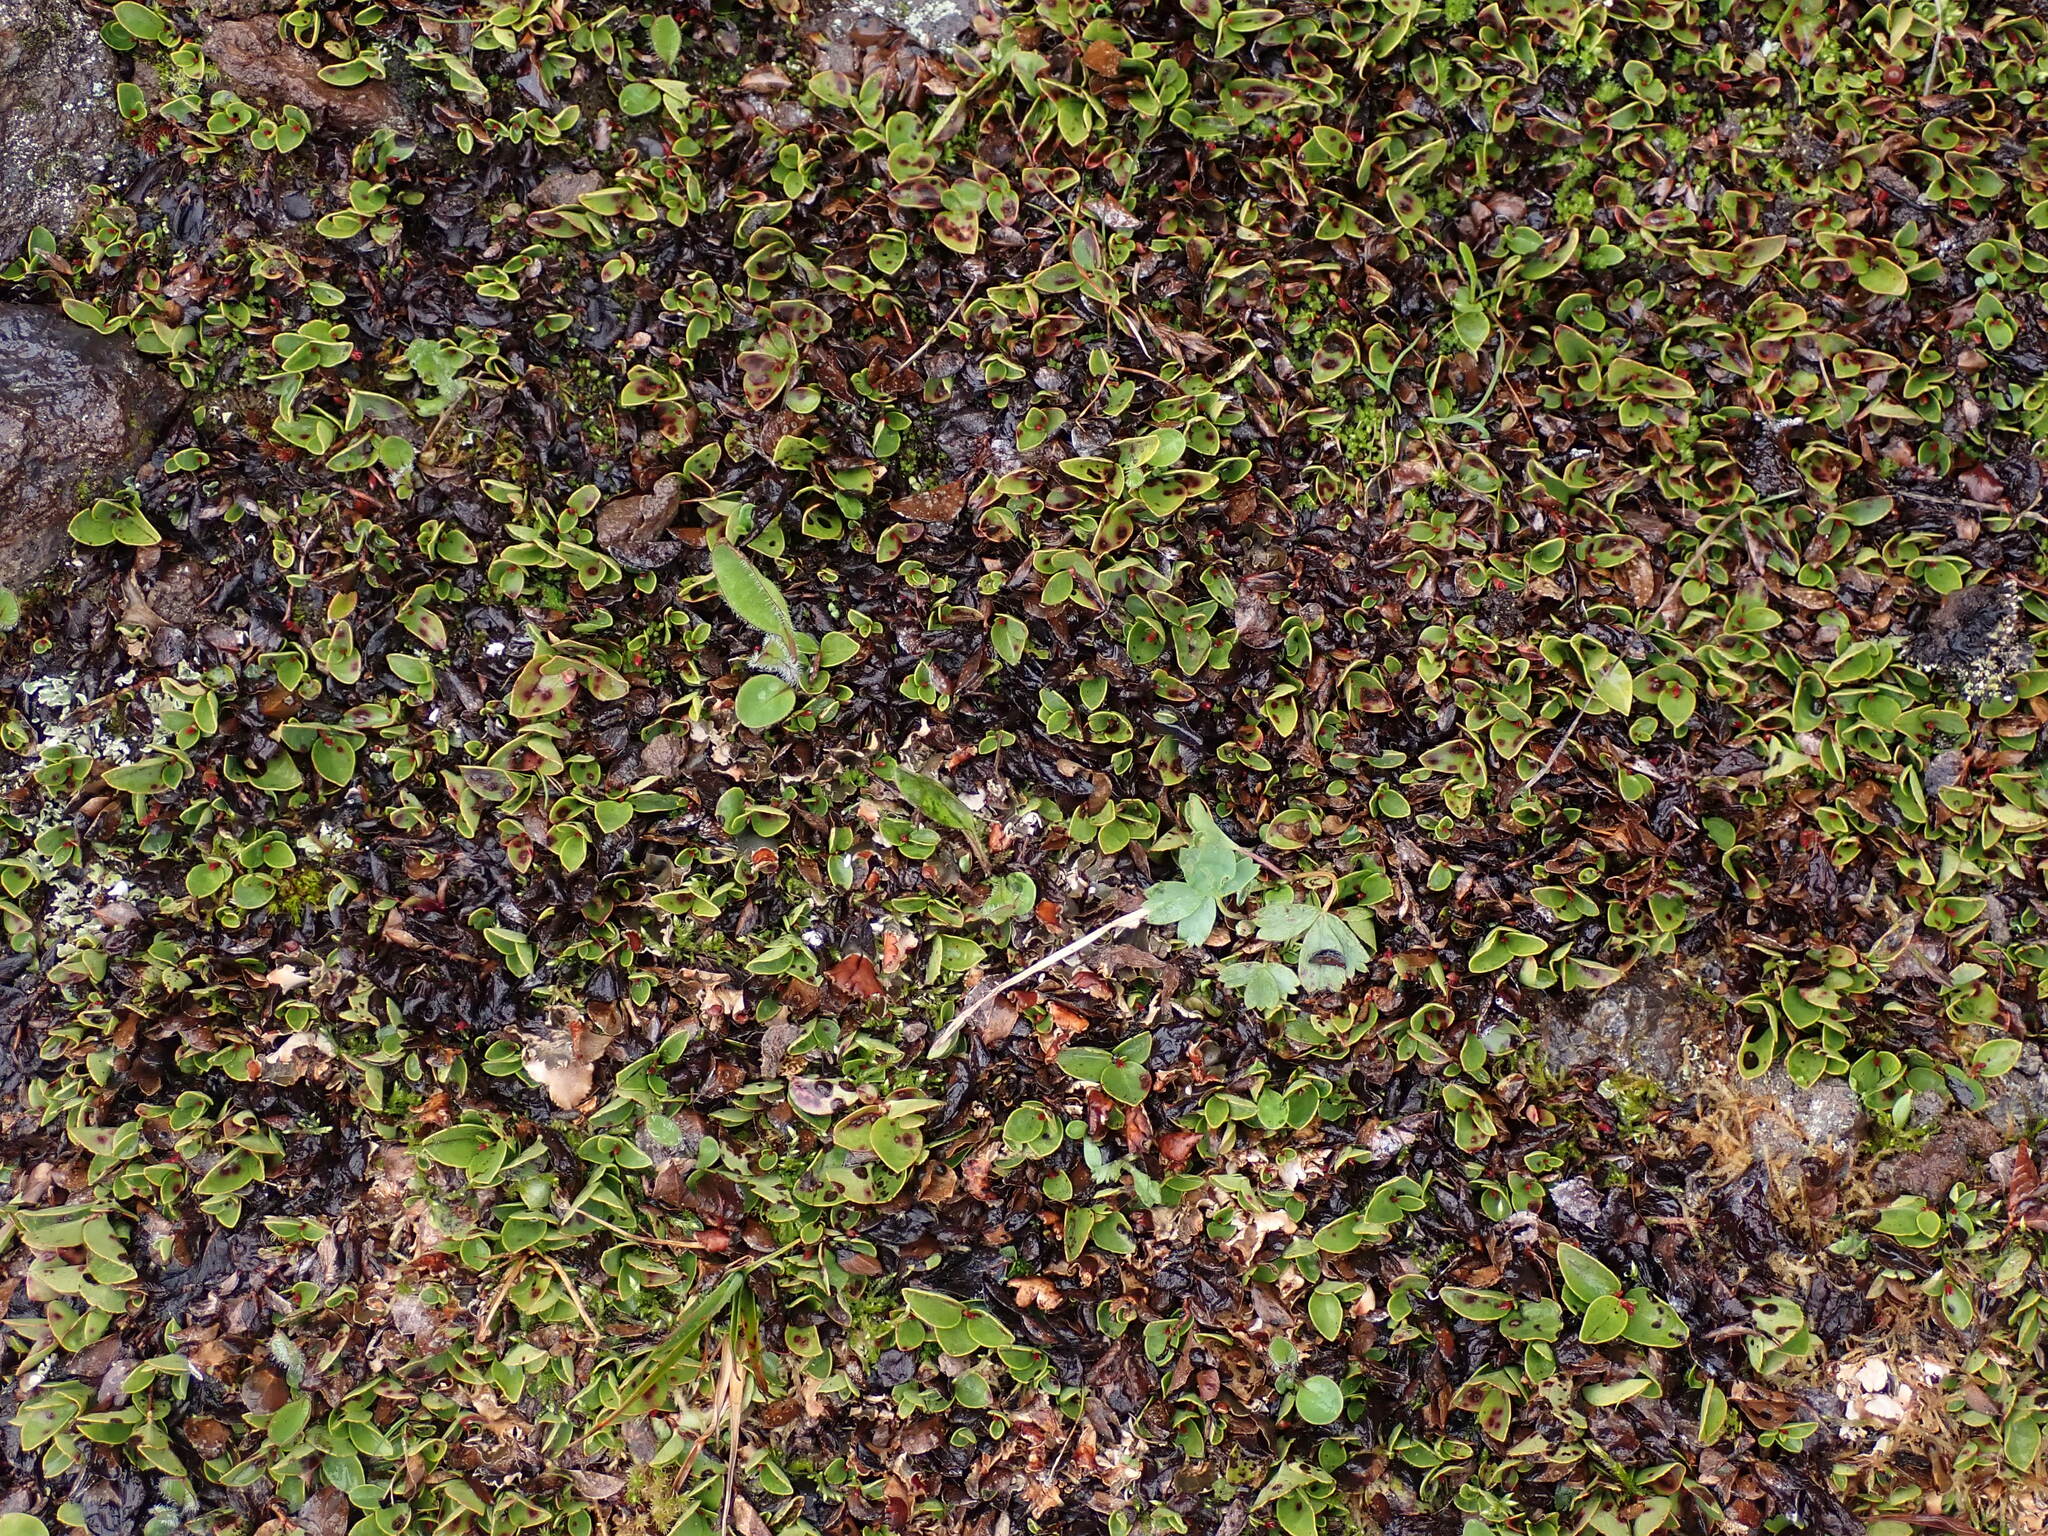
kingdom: Plantae
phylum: Tracheophyta
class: Magnoliopsida
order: Ericales
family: Ericaceae
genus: Gaultheria
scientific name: Gaultheria humifusa
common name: Alpine wintergreen
